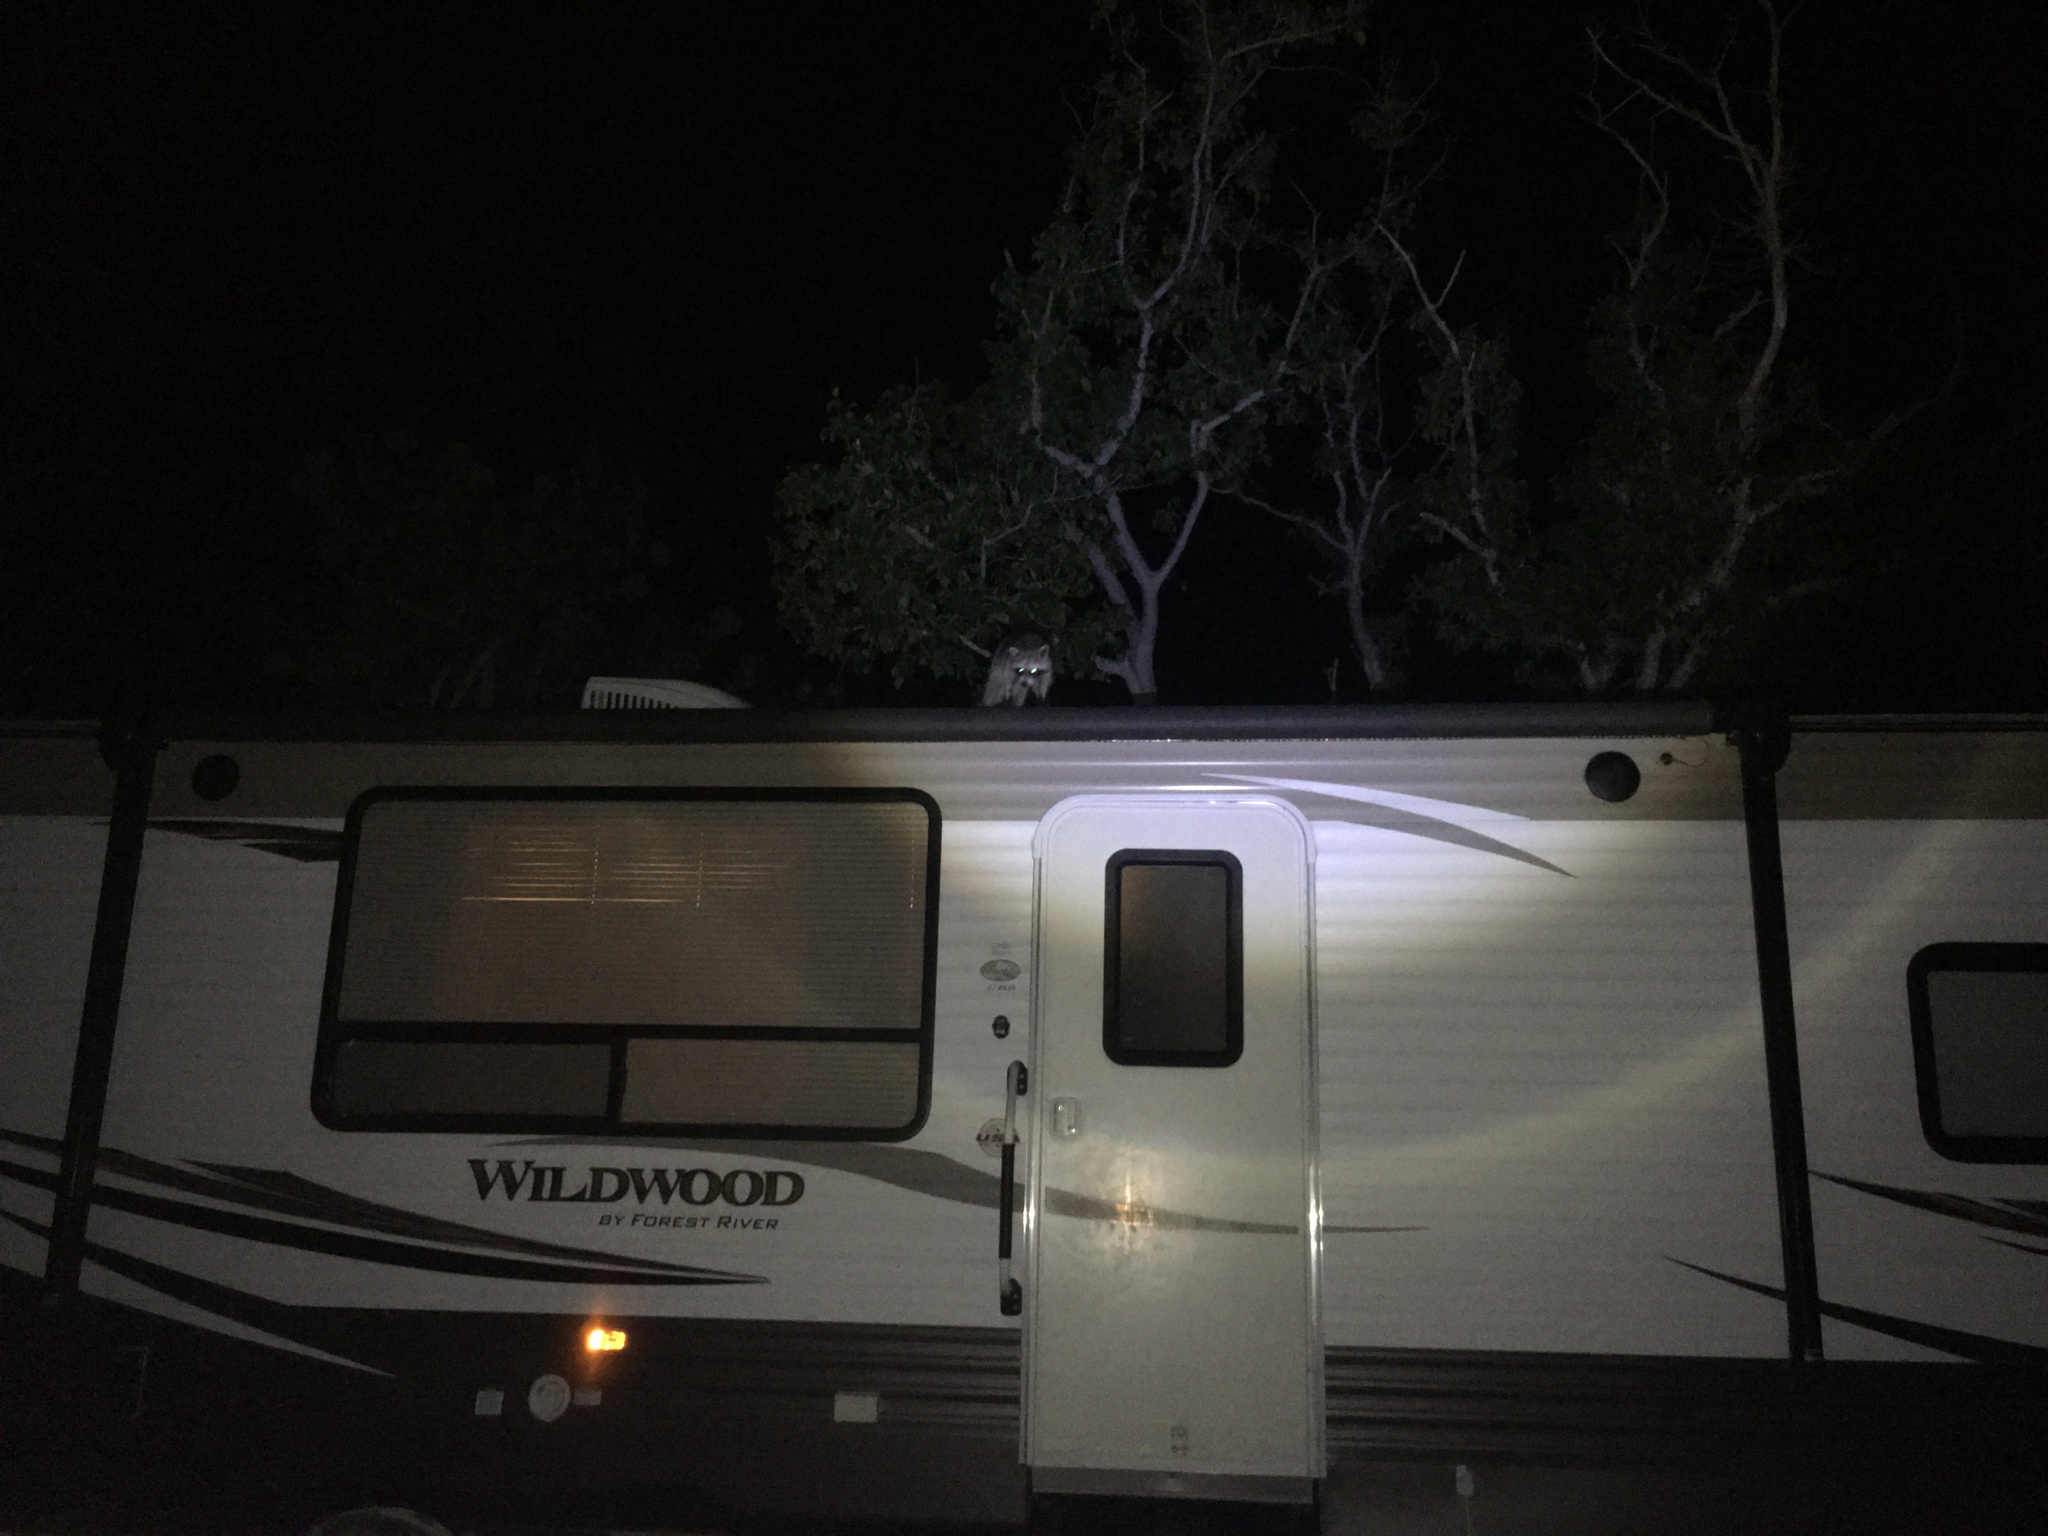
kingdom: Animalia
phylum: Chordata
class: Mammalia
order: Carnivora
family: Procyonidae
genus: Procyon
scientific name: Procyon lotor
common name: Raccoon
